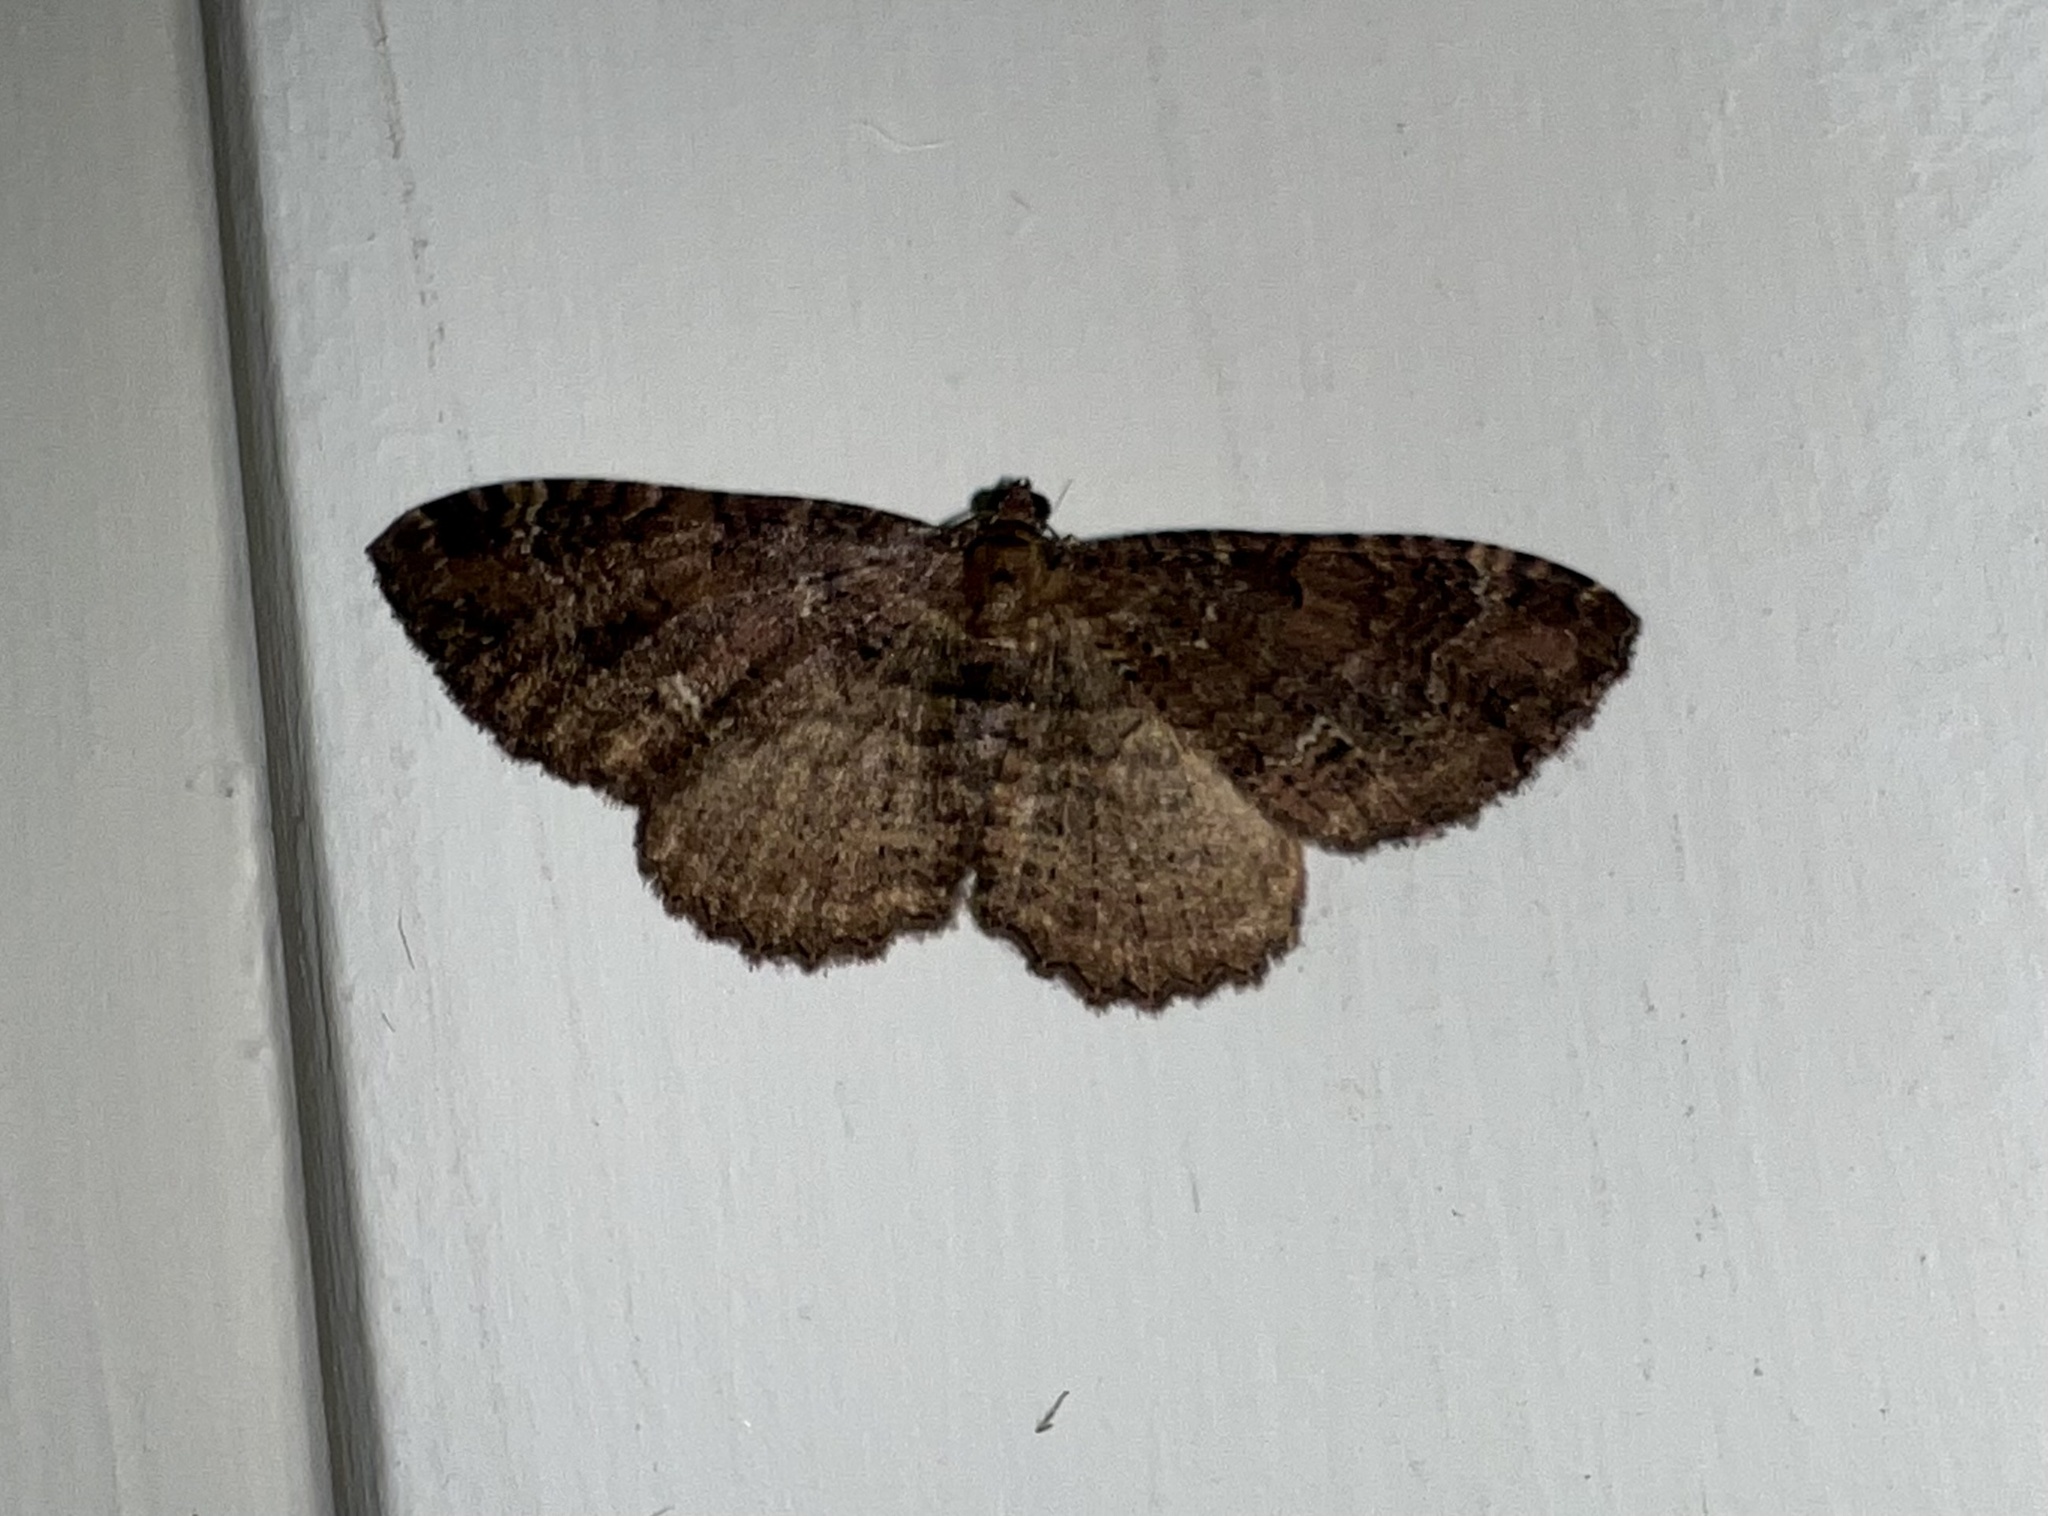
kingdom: Animalia
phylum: Arthropoda
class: Insecta
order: Lepidoptera
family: Geometridae
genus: Visiana
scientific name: Visiana brujata
